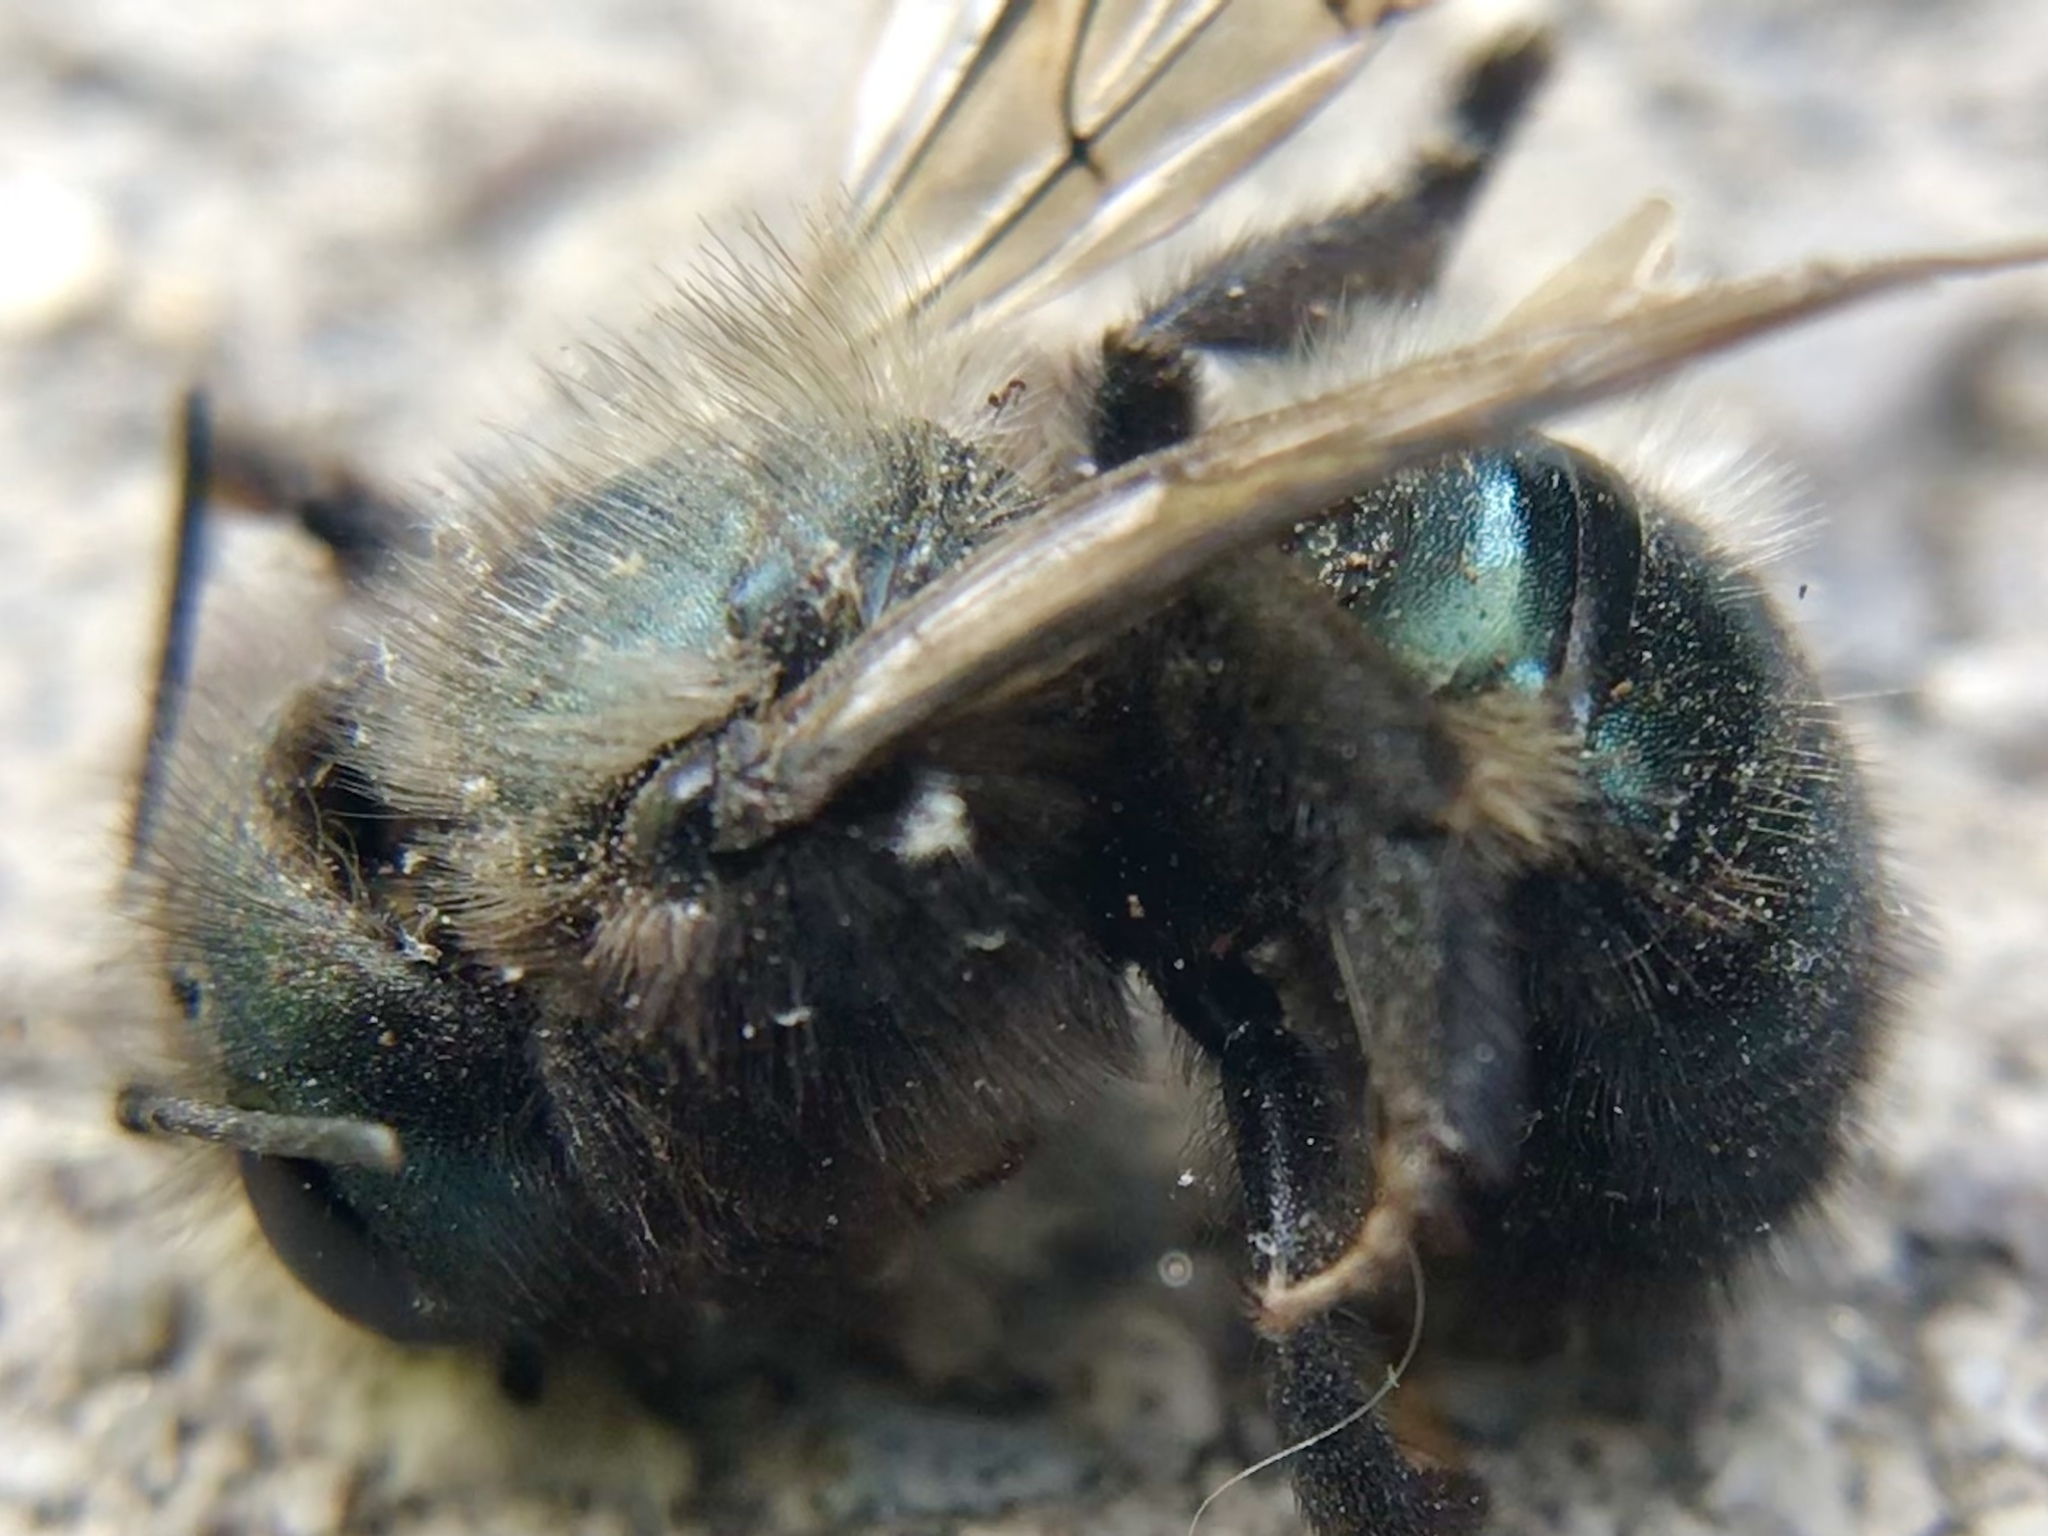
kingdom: Animalia
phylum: Arthropoda
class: Insecta
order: Hymenoptera
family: Megachilidae
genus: Osmia
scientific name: Osmia lignaria
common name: Blue orchard bee
